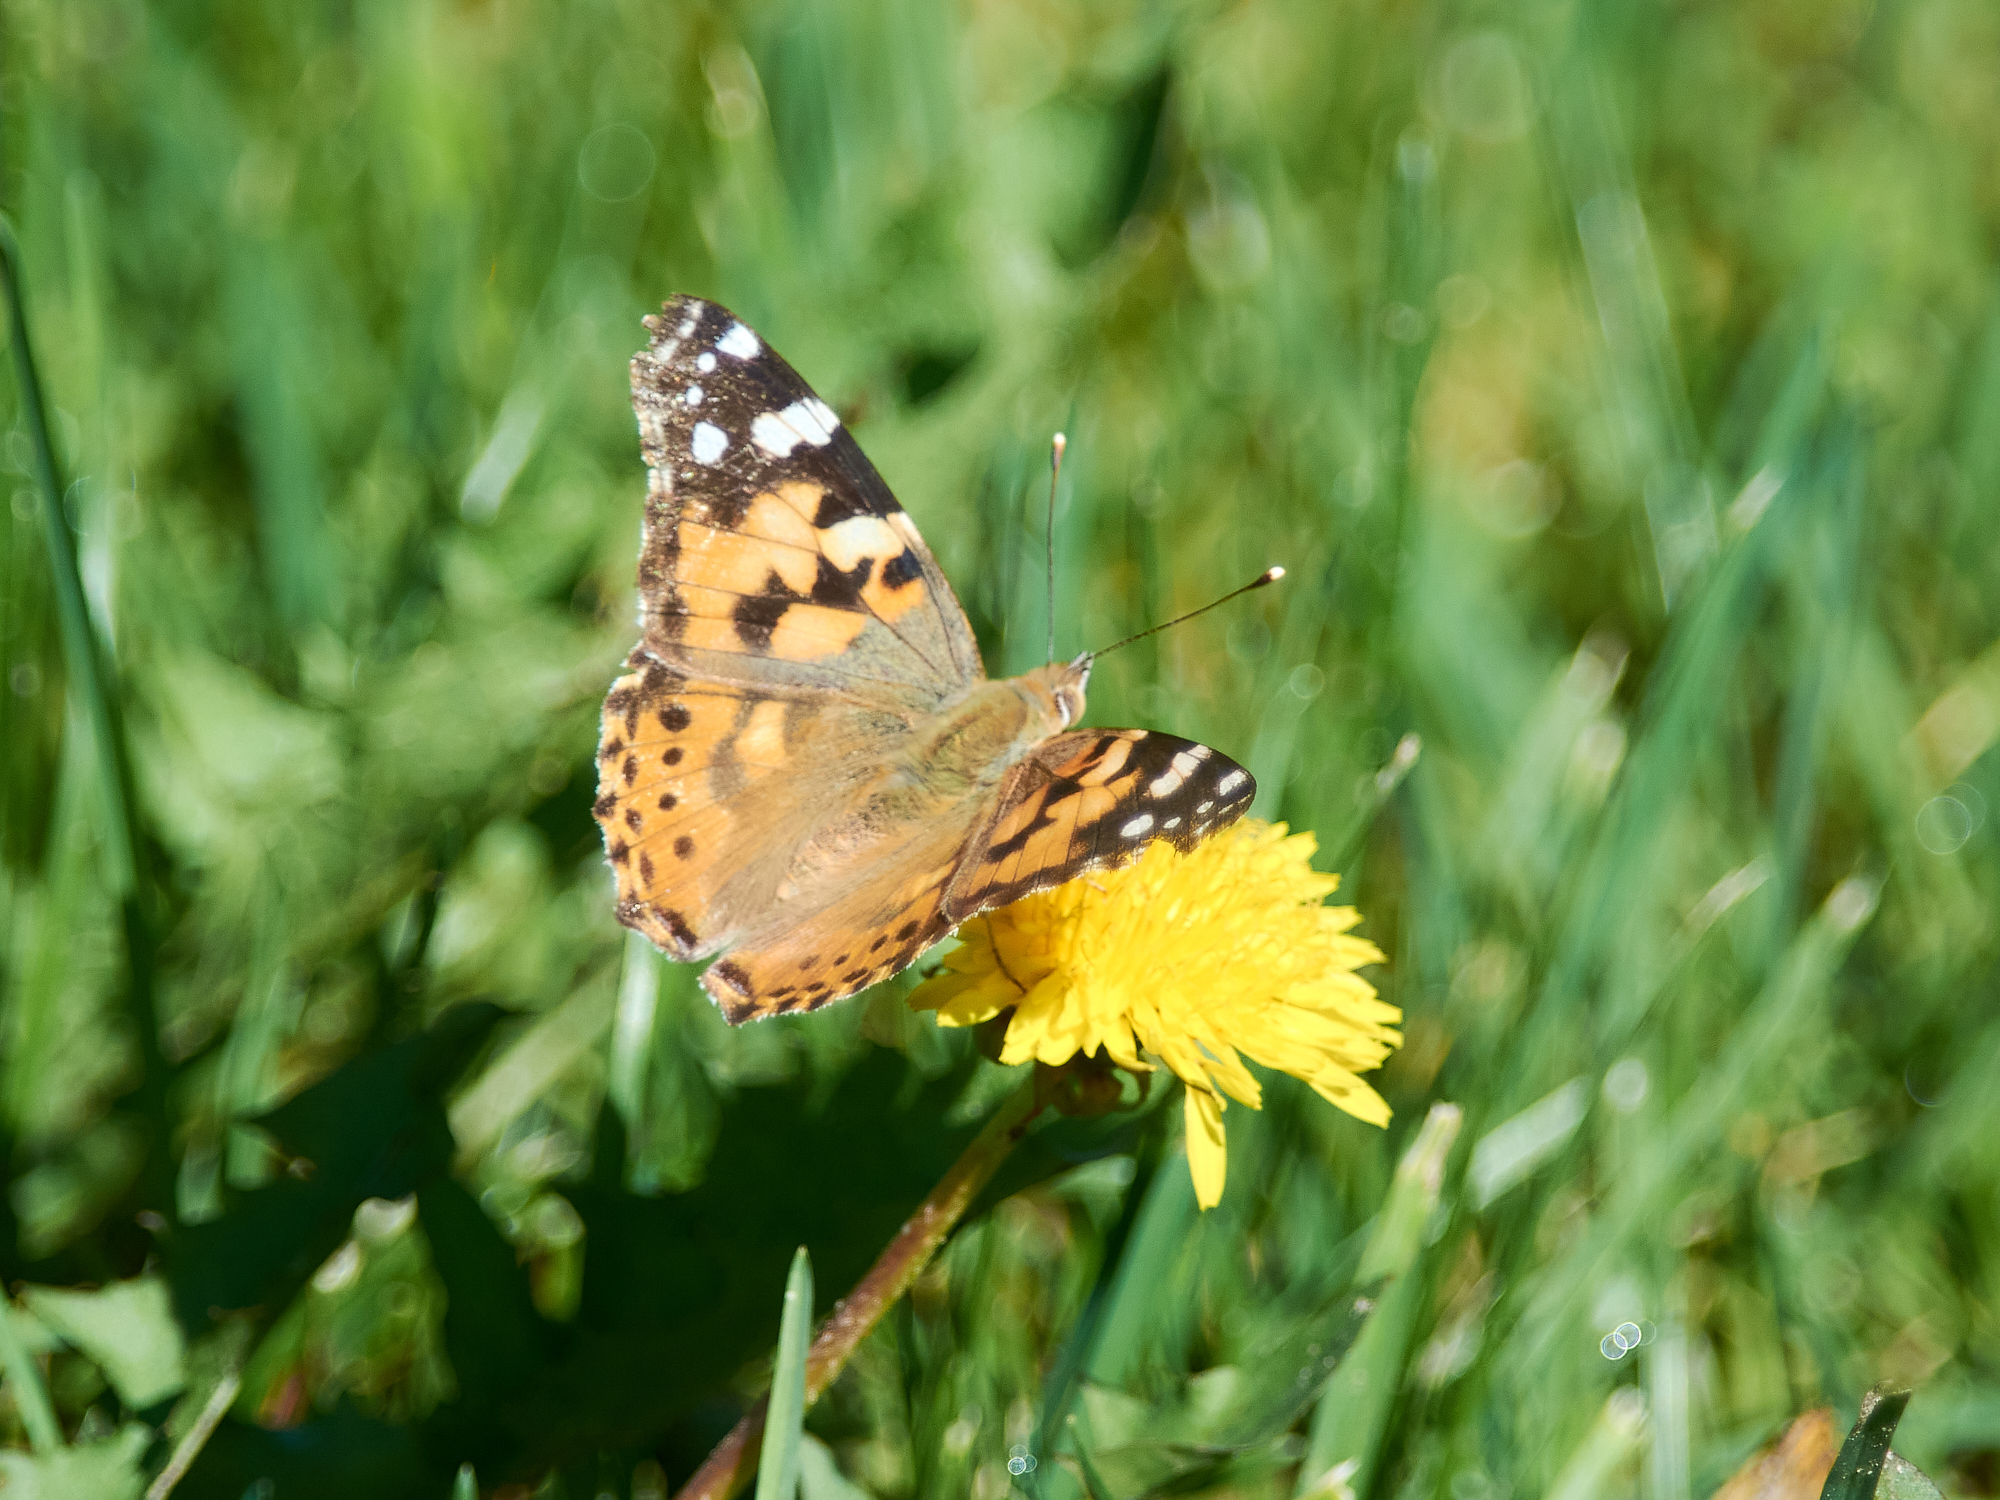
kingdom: Animalia
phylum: Arthropoda
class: Insecta
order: Lepidoptera
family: Nymphalidae
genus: Vanessa
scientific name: Vanessa cardui
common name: Painted lady
